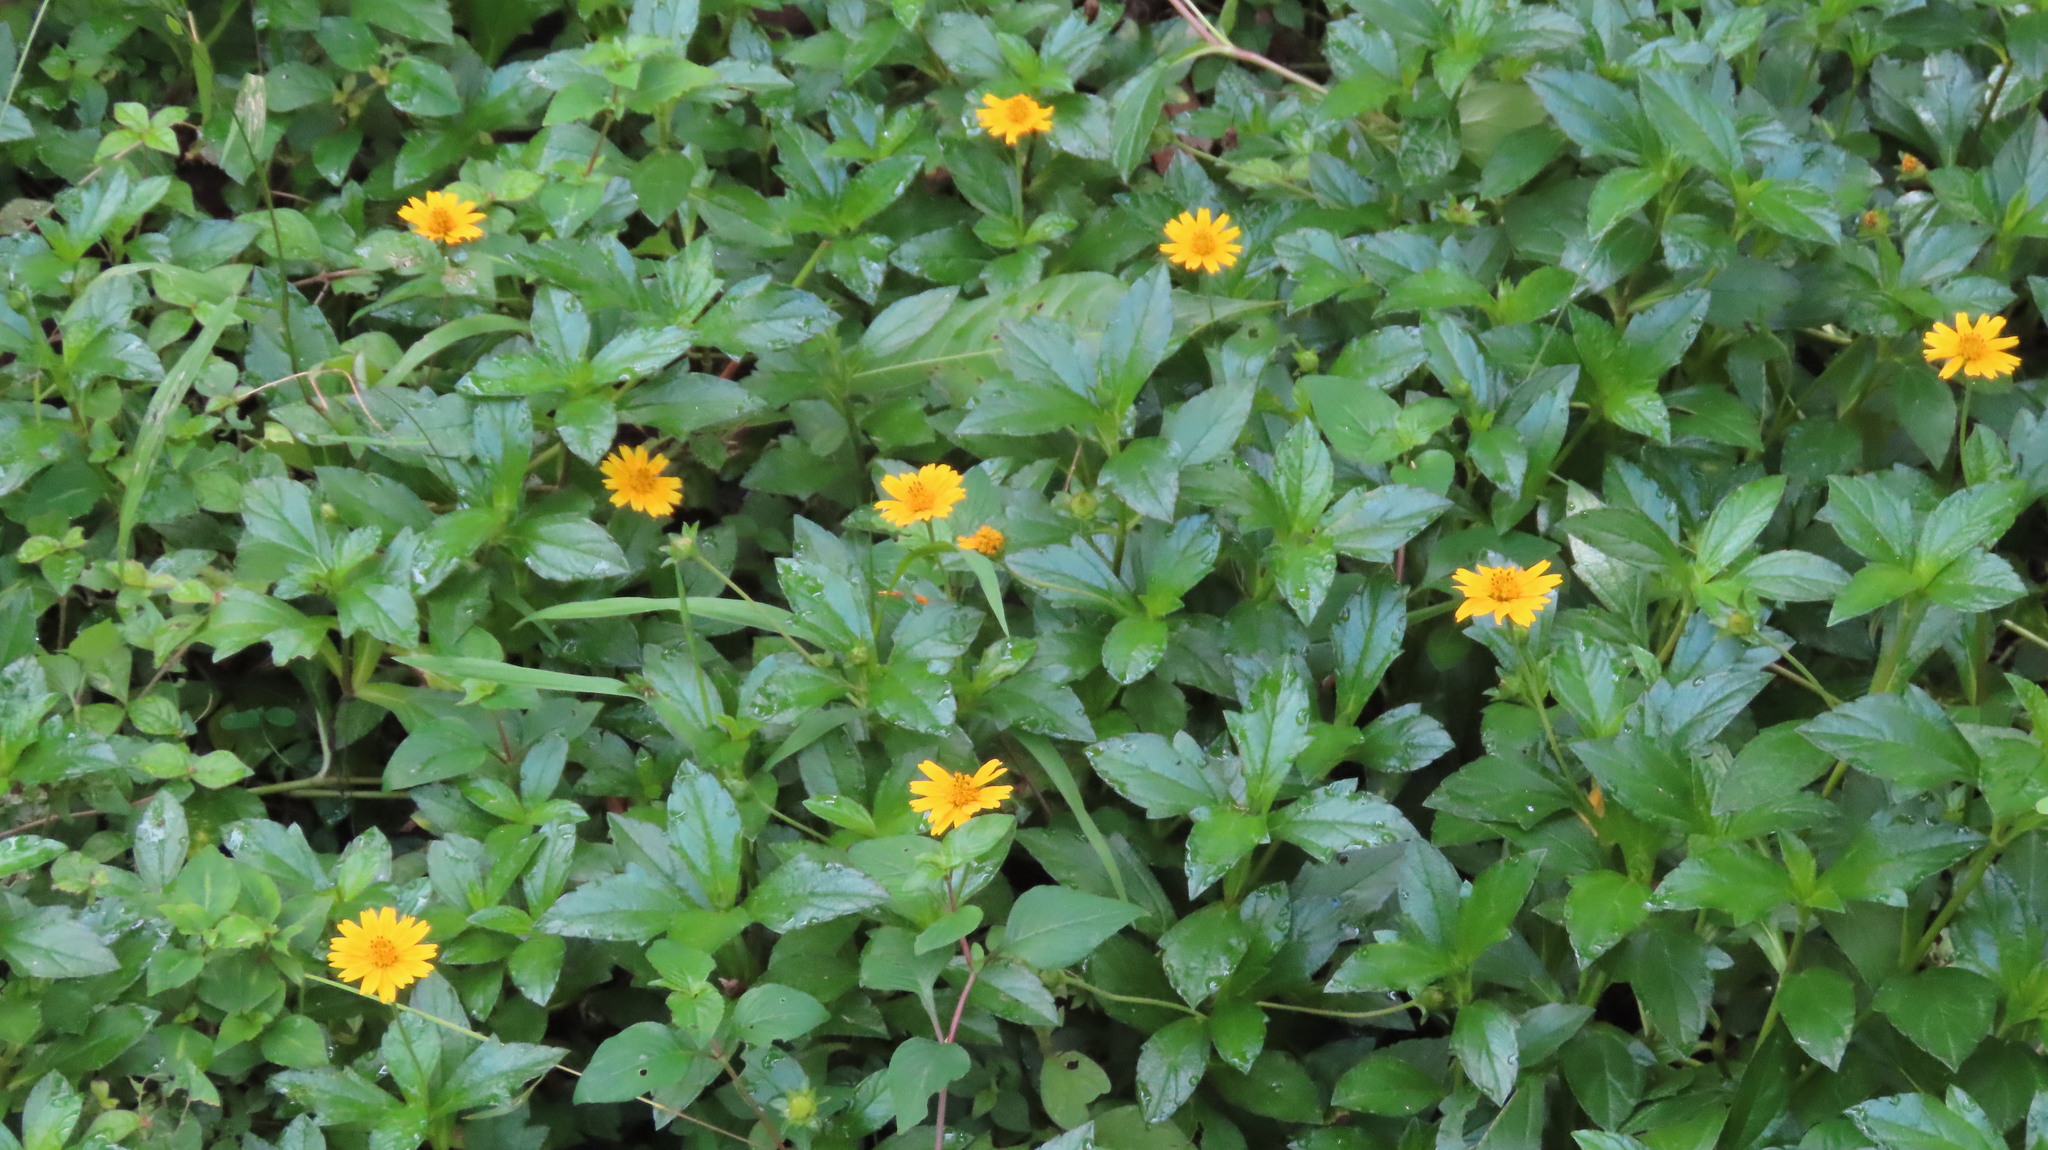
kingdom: Plantae
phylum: Tracheophyta
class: Magnoliopsida
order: Asterales
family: Asteraceae
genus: Sphagneticola
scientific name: Sphagneticola trilobata
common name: Bay biscayne creeping-oxeye
